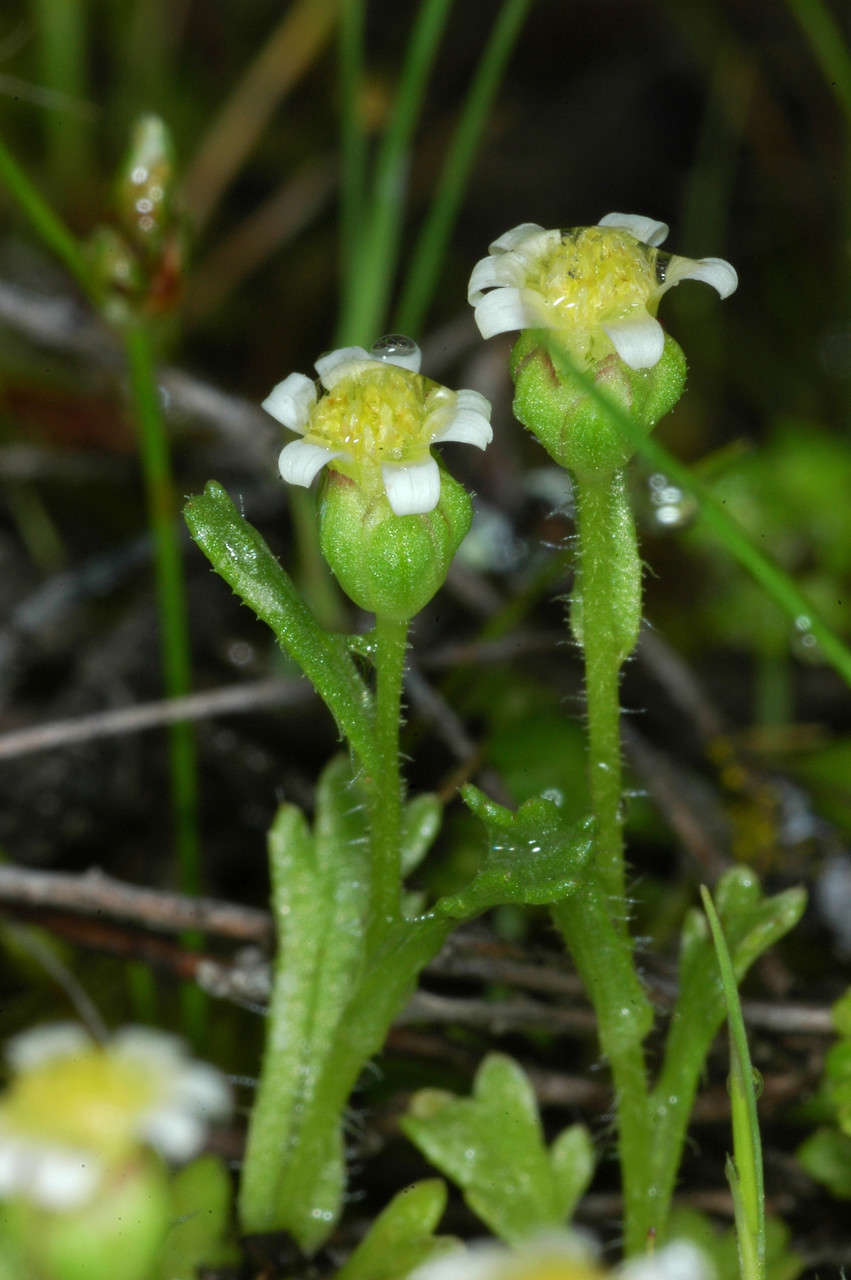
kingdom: Plantae
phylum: Tracheophyta
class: Magnoliopsida
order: Asterales
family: Asteraceae
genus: Brachyscome
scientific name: Brachyscome goniocarpa
